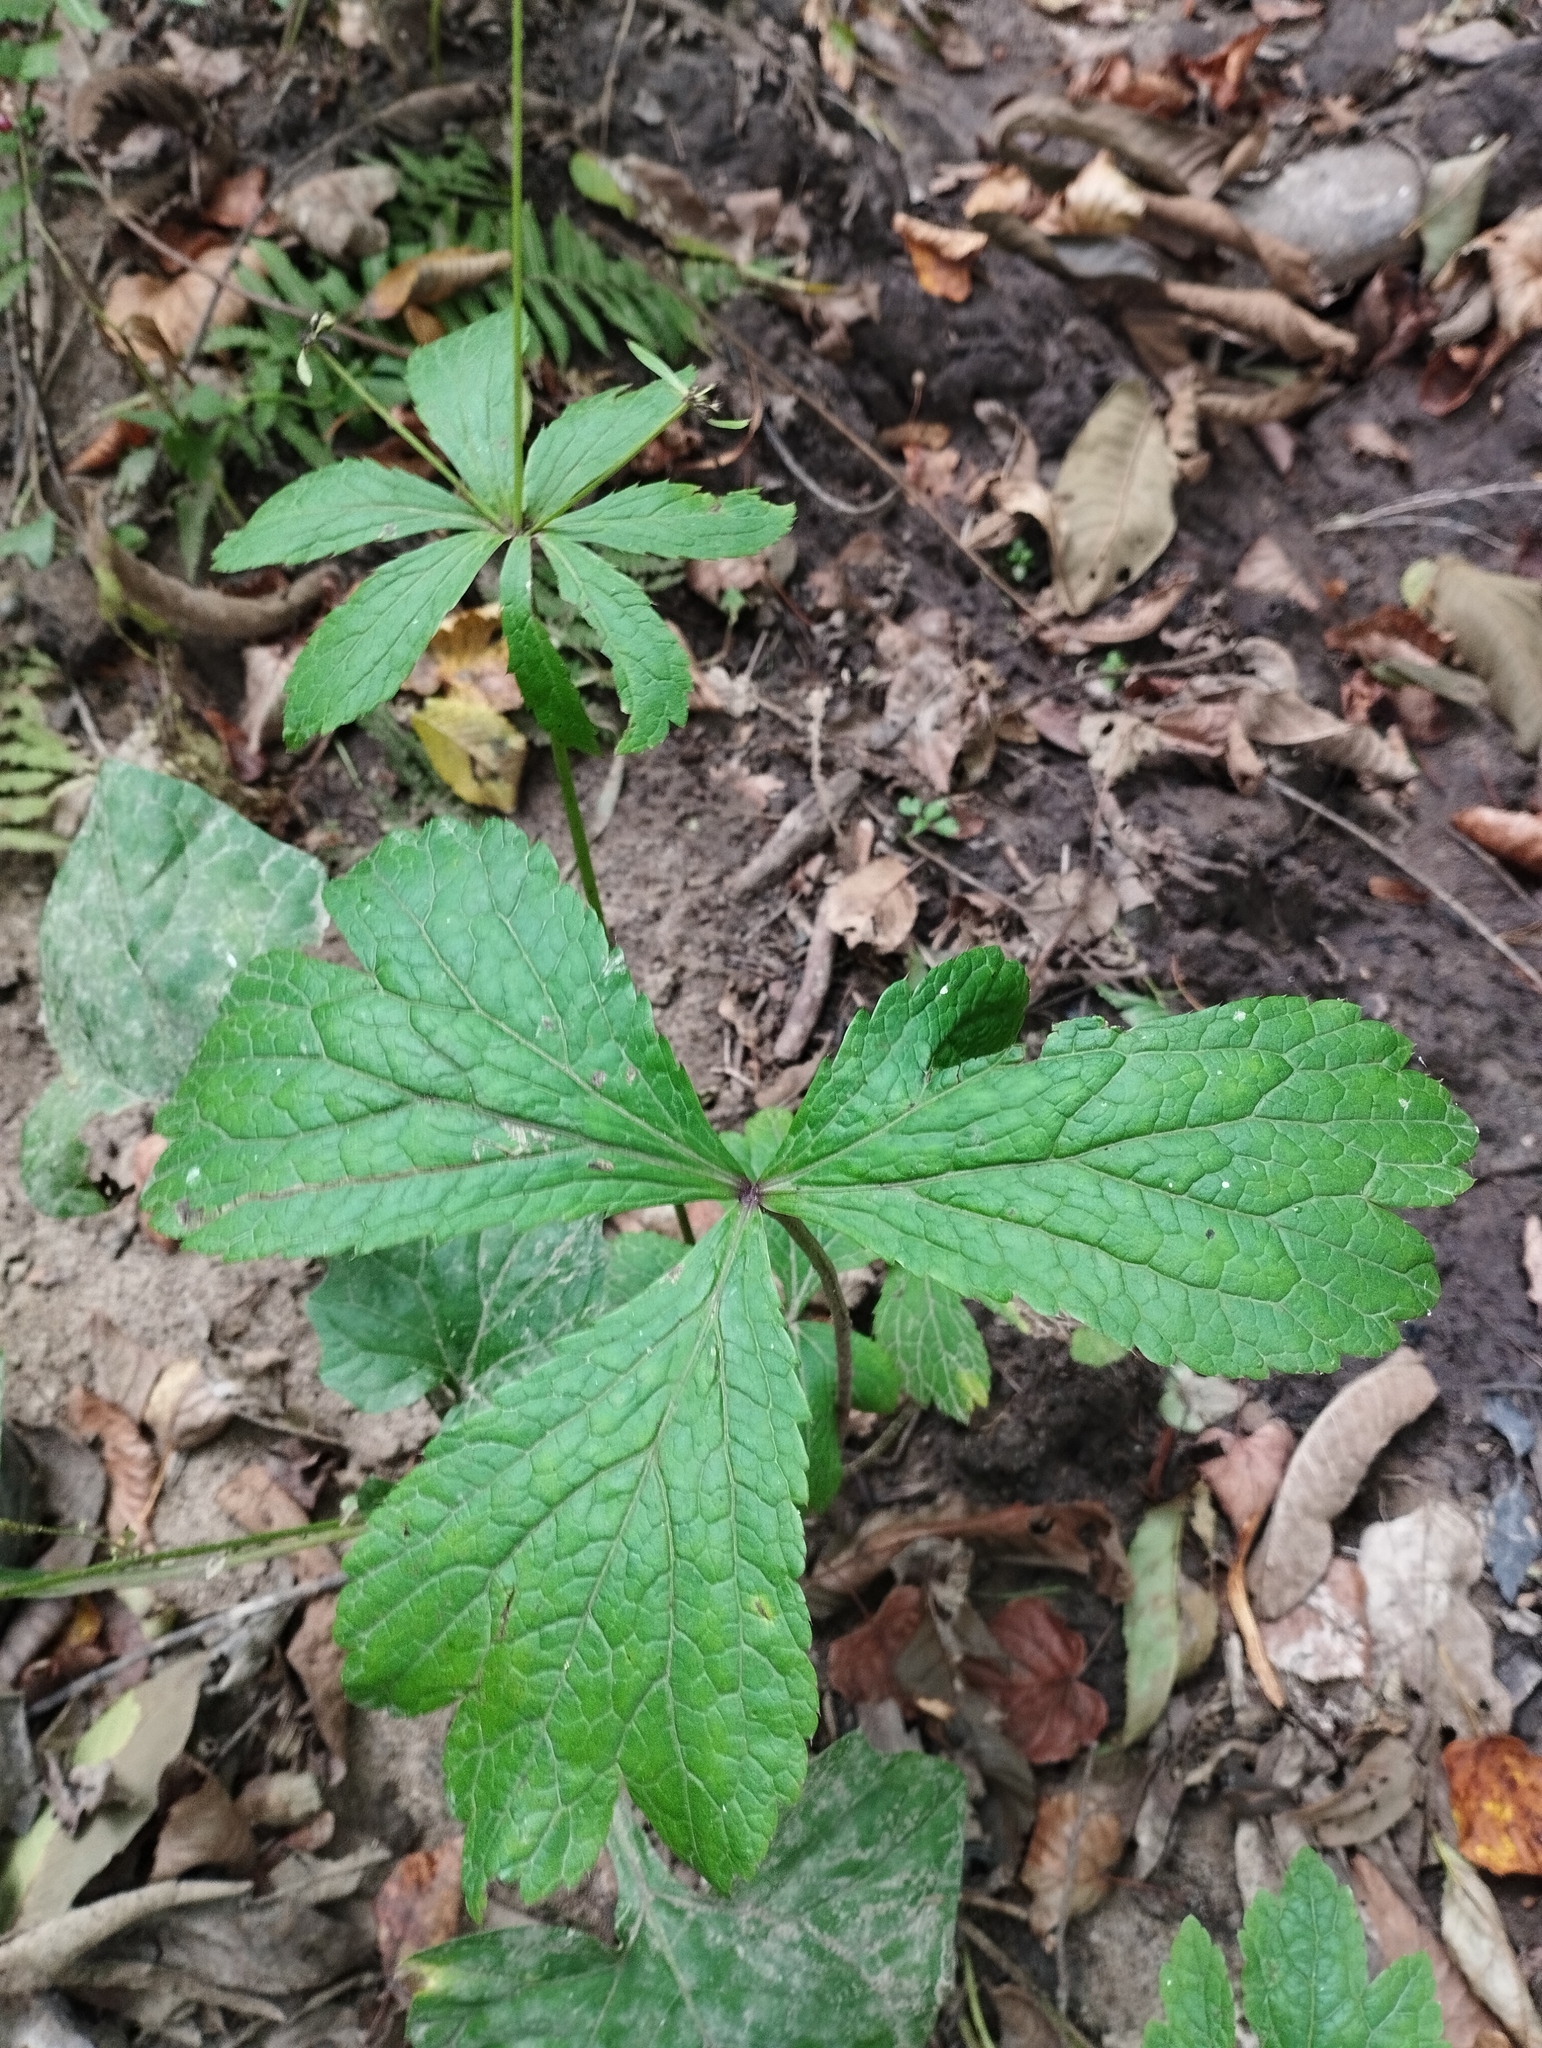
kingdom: Plantae
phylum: Tracheophyta
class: Magnoliopsida
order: Apiales
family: Apiaceae
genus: Sanicula
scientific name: Sanicula rubriflora
